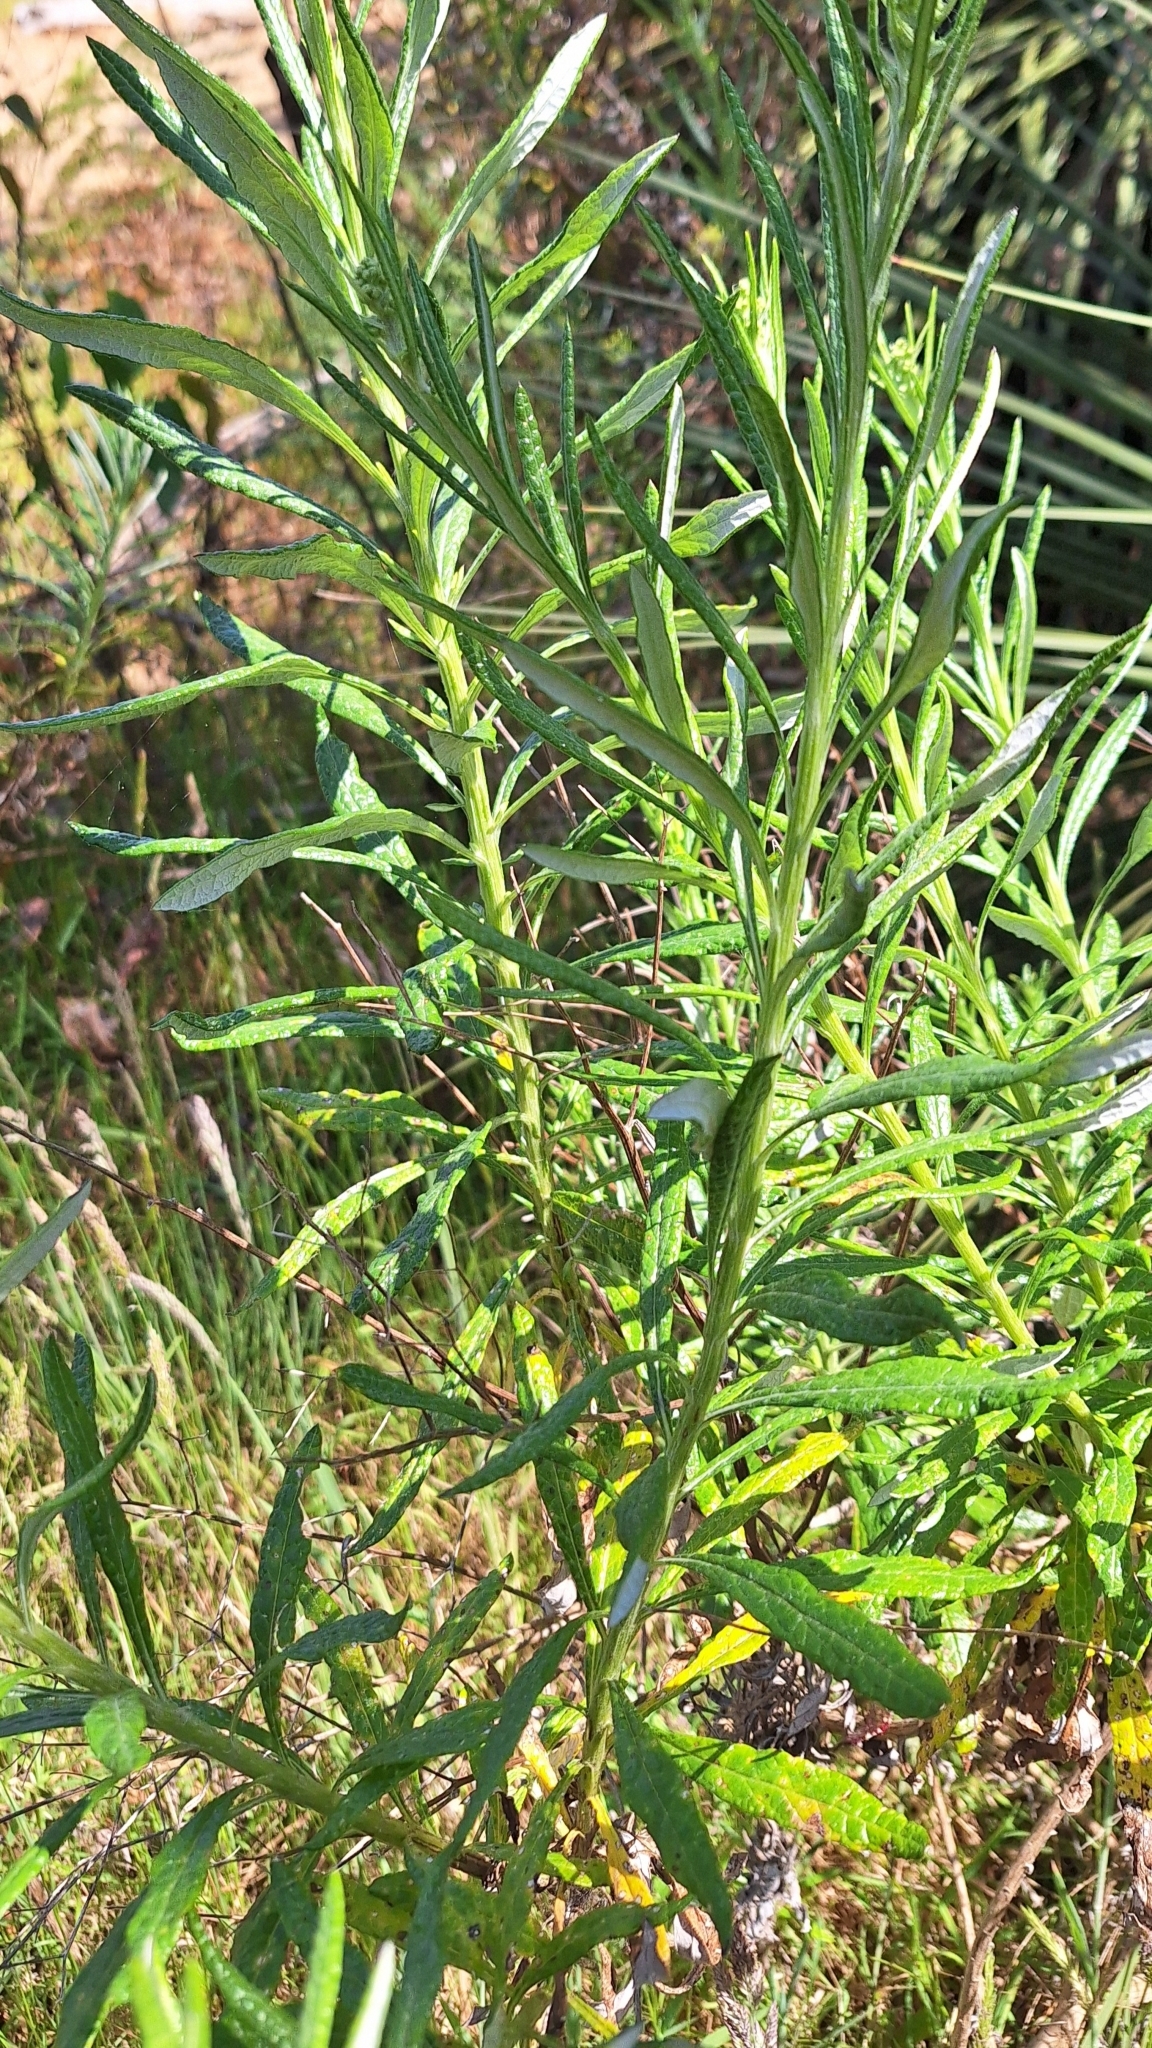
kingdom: Plantae
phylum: Tracheophyta
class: Magnoliopsida
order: Asterales
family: Asteraceae
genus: Senecio
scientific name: Senecio pterophorus
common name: Shoddy ragwort
